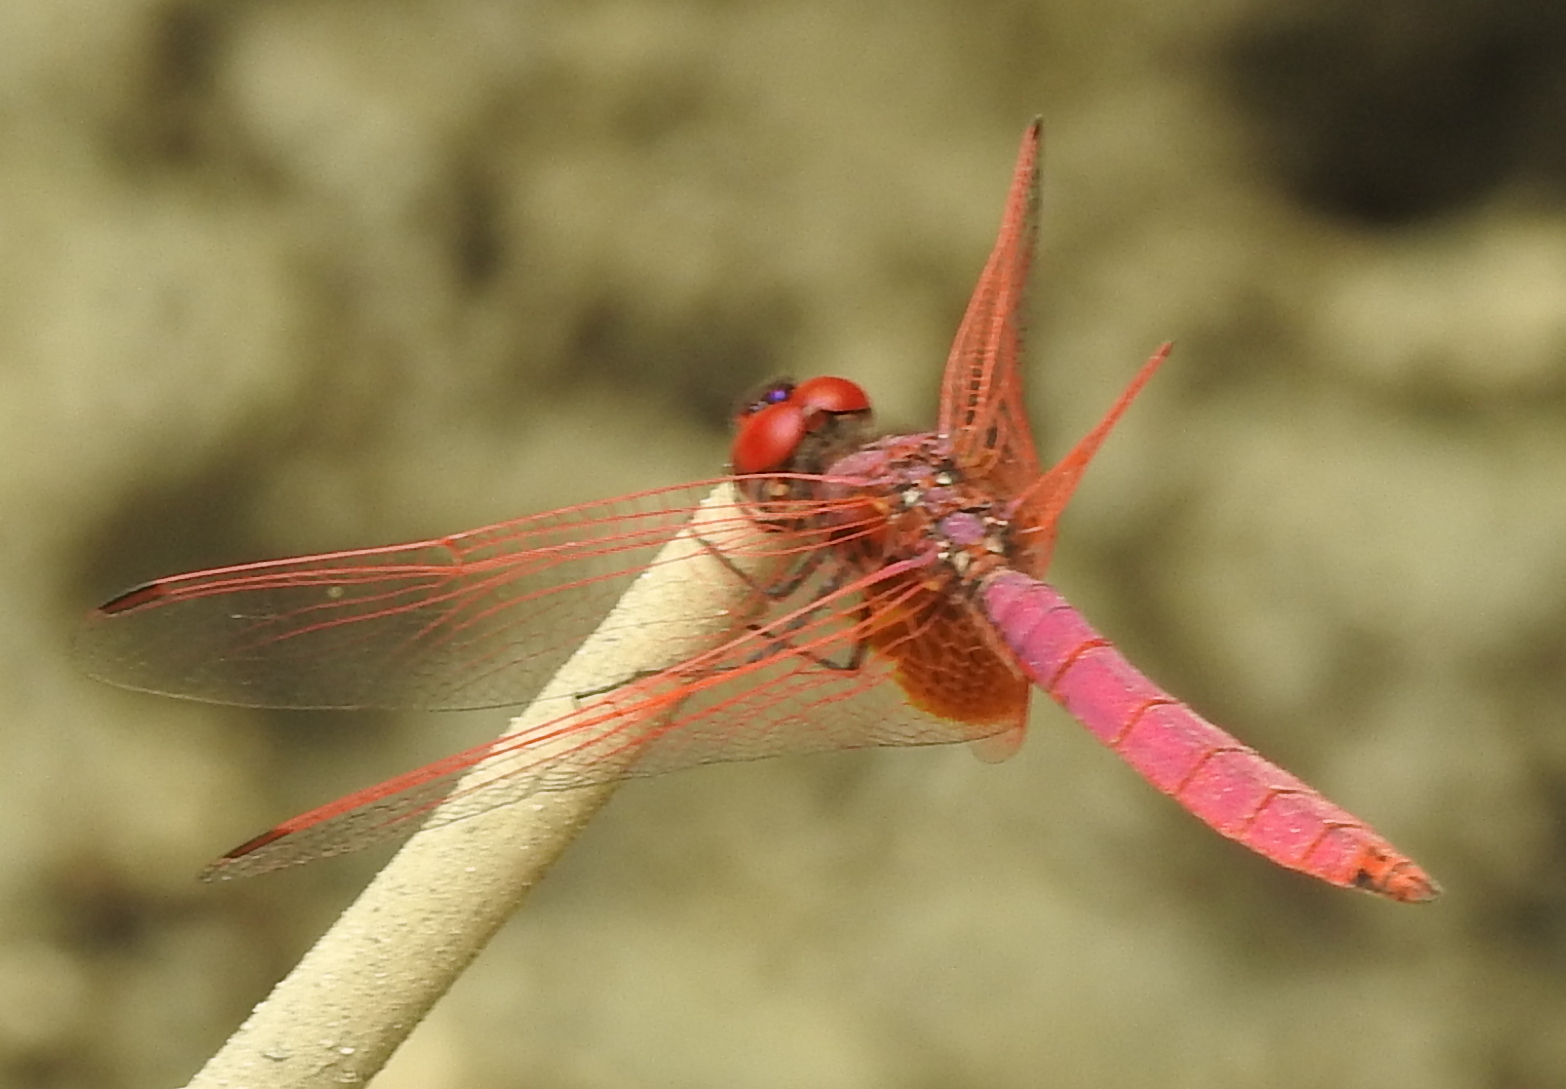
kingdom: Animalia
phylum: Arthropoda
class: Insecta
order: Odonata
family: Libellulidae
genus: Trithemis
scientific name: Trithemis aurora
